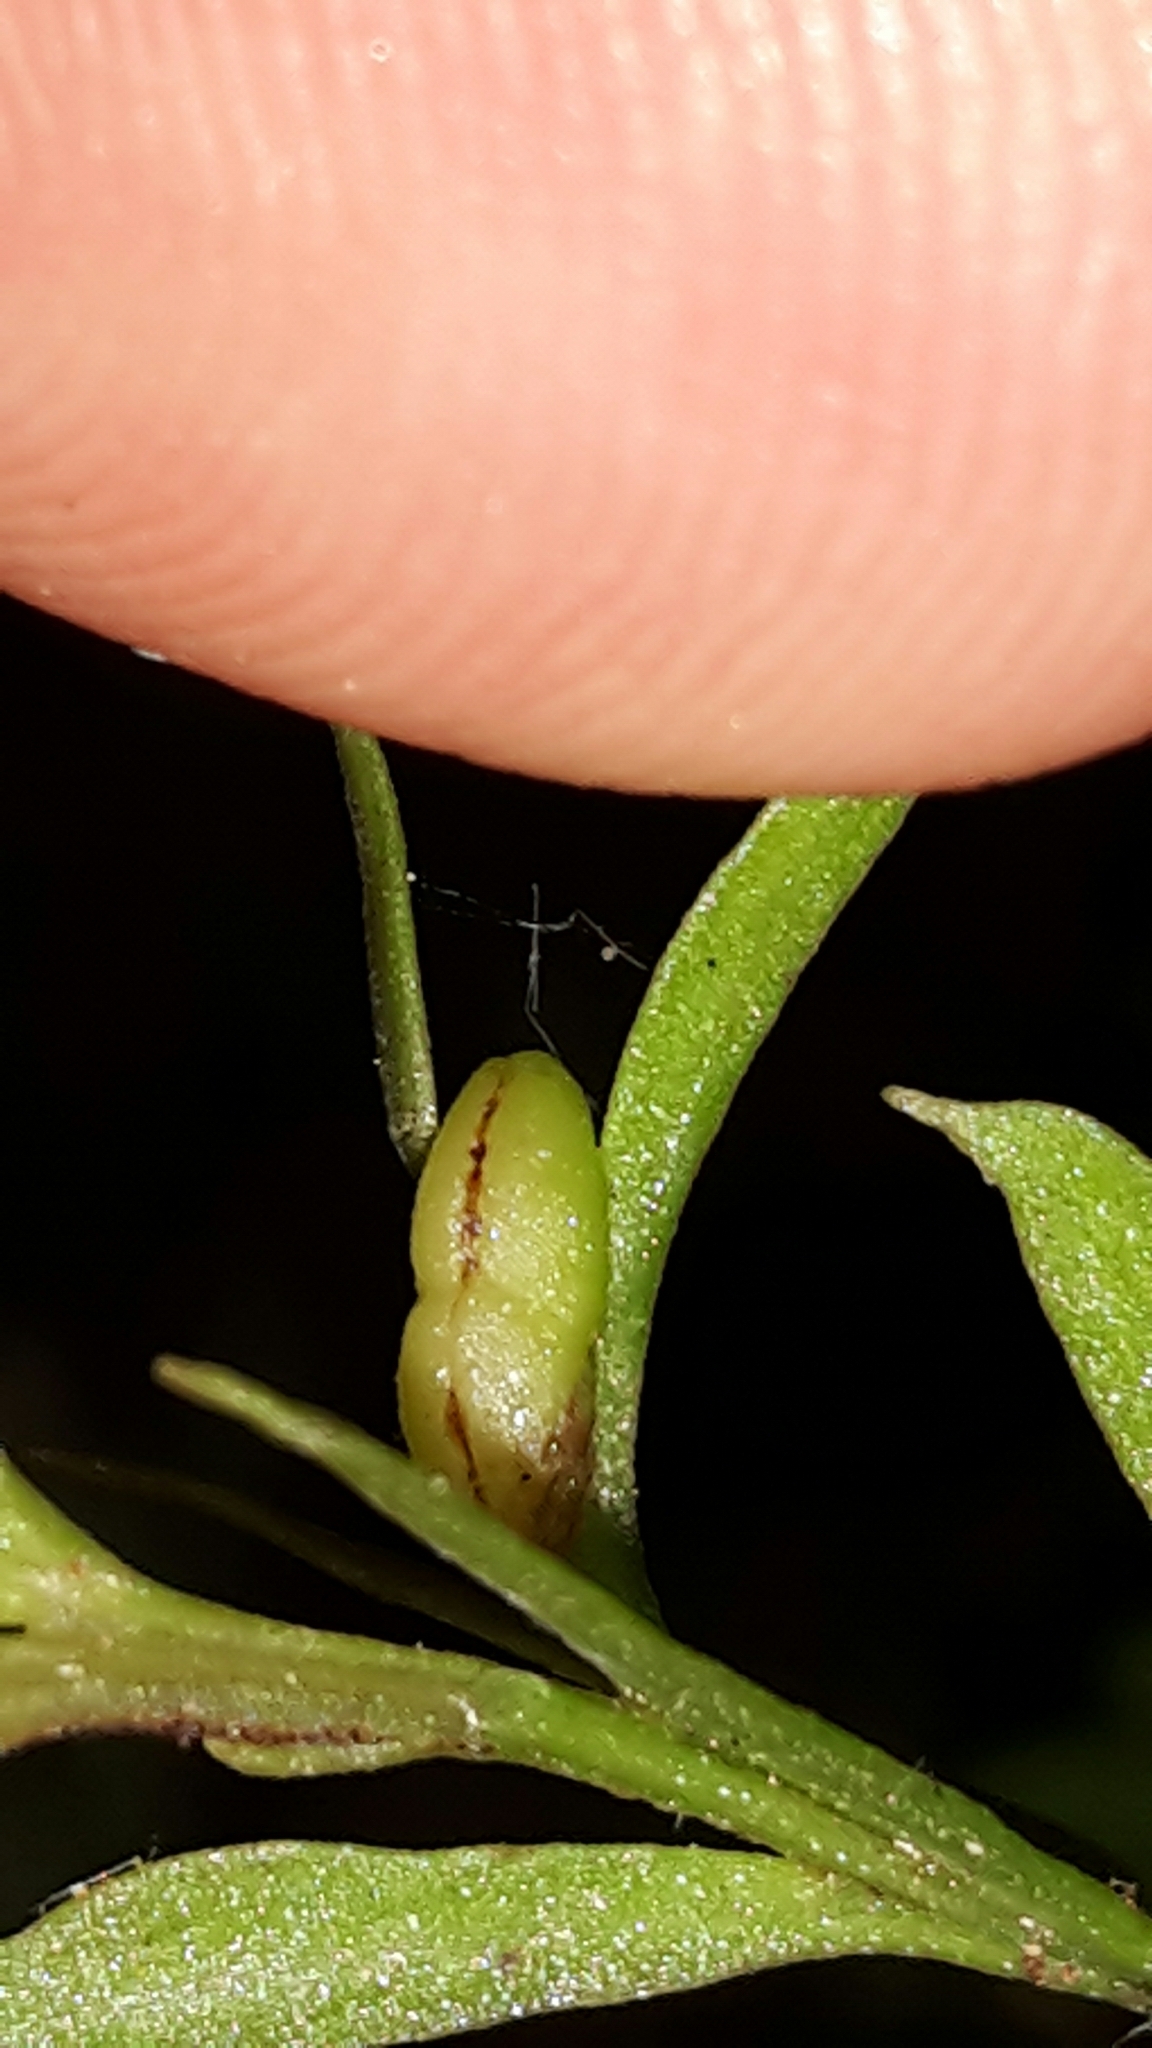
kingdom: Plantae
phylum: Tracheophyta
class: Polypodiopsida
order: Psilotales
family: Psilotaceae
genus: Tmesipteris
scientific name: Tmesipteris elongata
